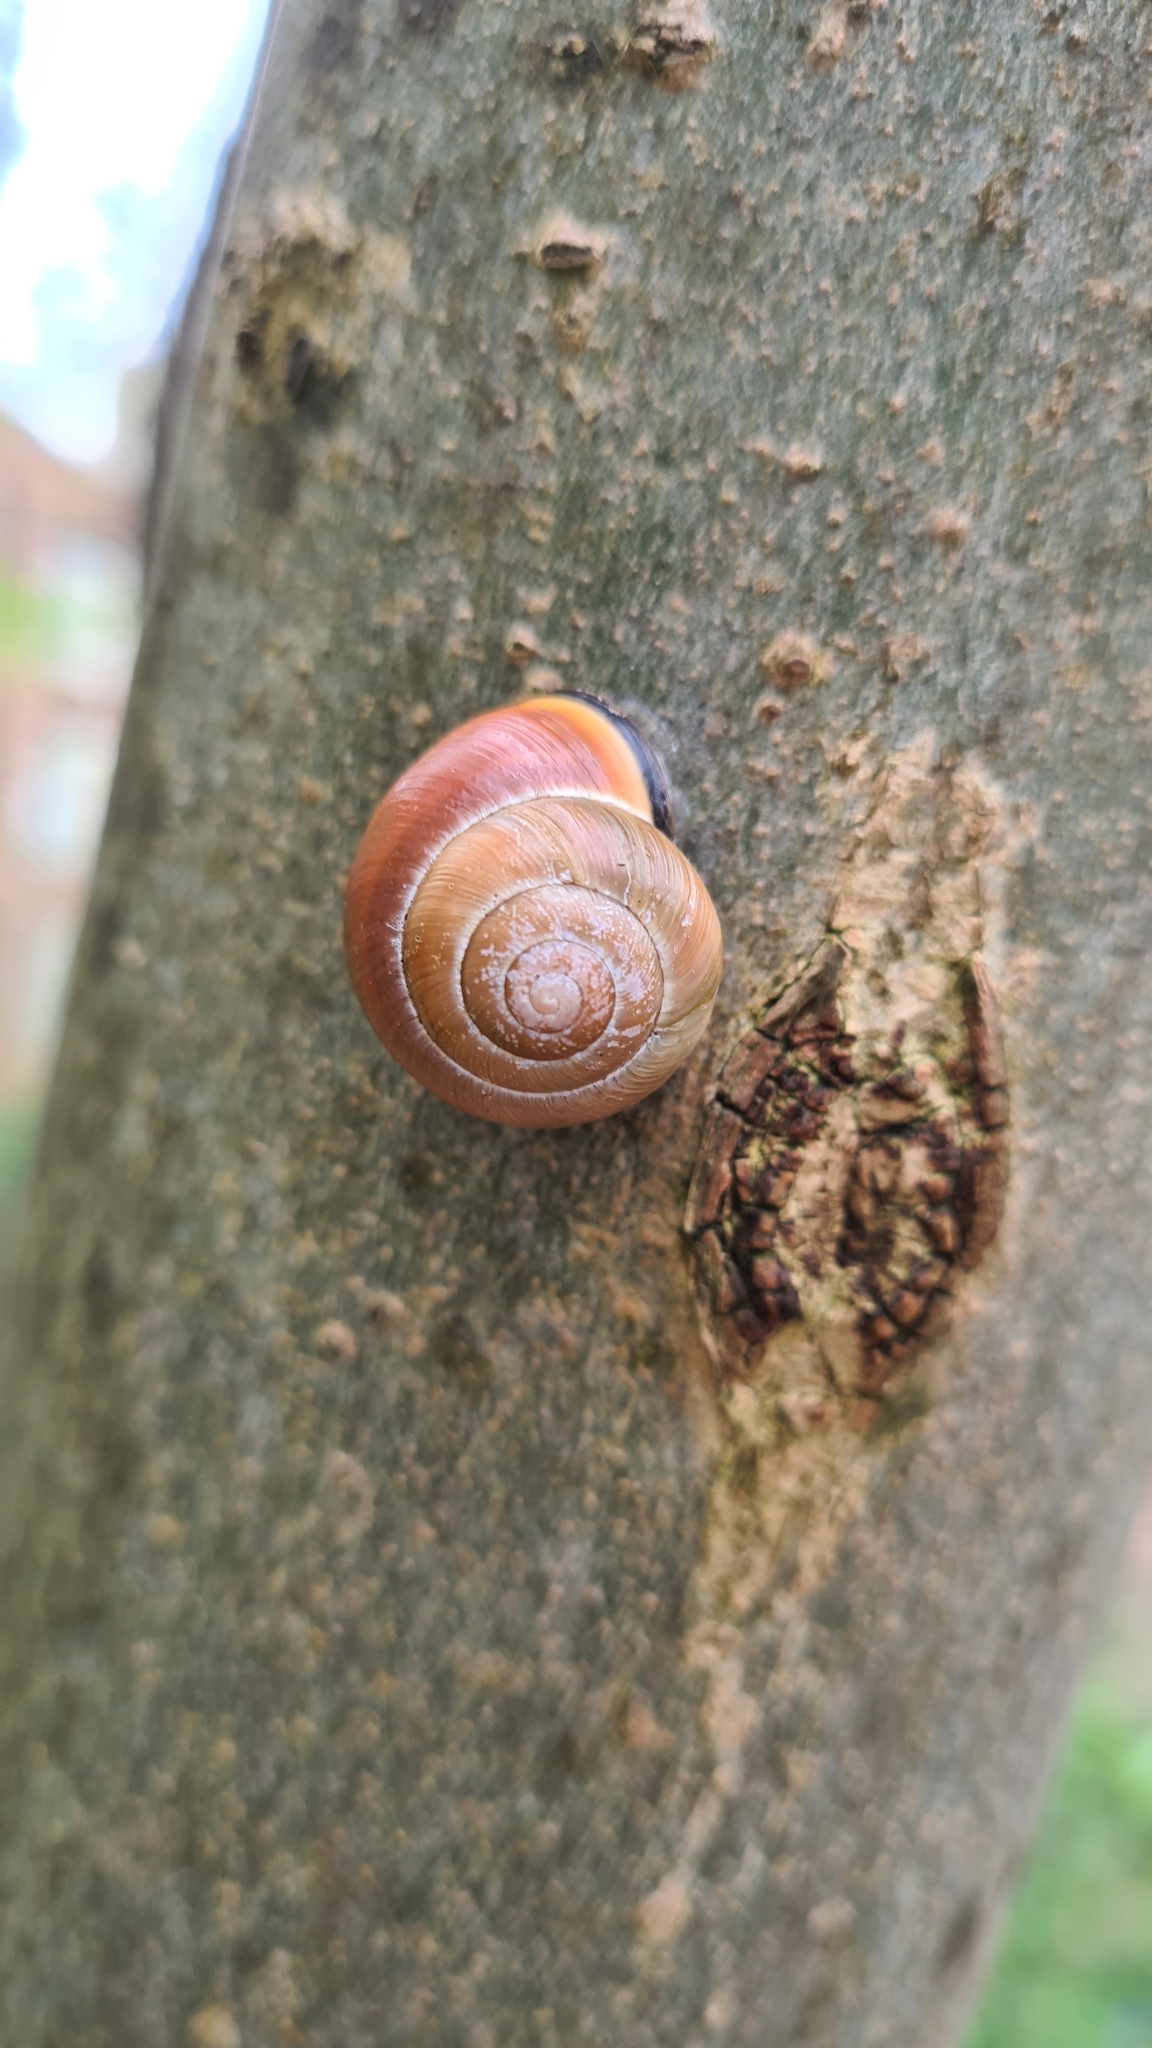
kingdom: Animalia
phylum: Mollusca
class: Gastropoda
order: Stylommatophora
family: Helicidae
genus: Cepaea
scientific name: Cepaea nemoralis
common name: Grovesnail
